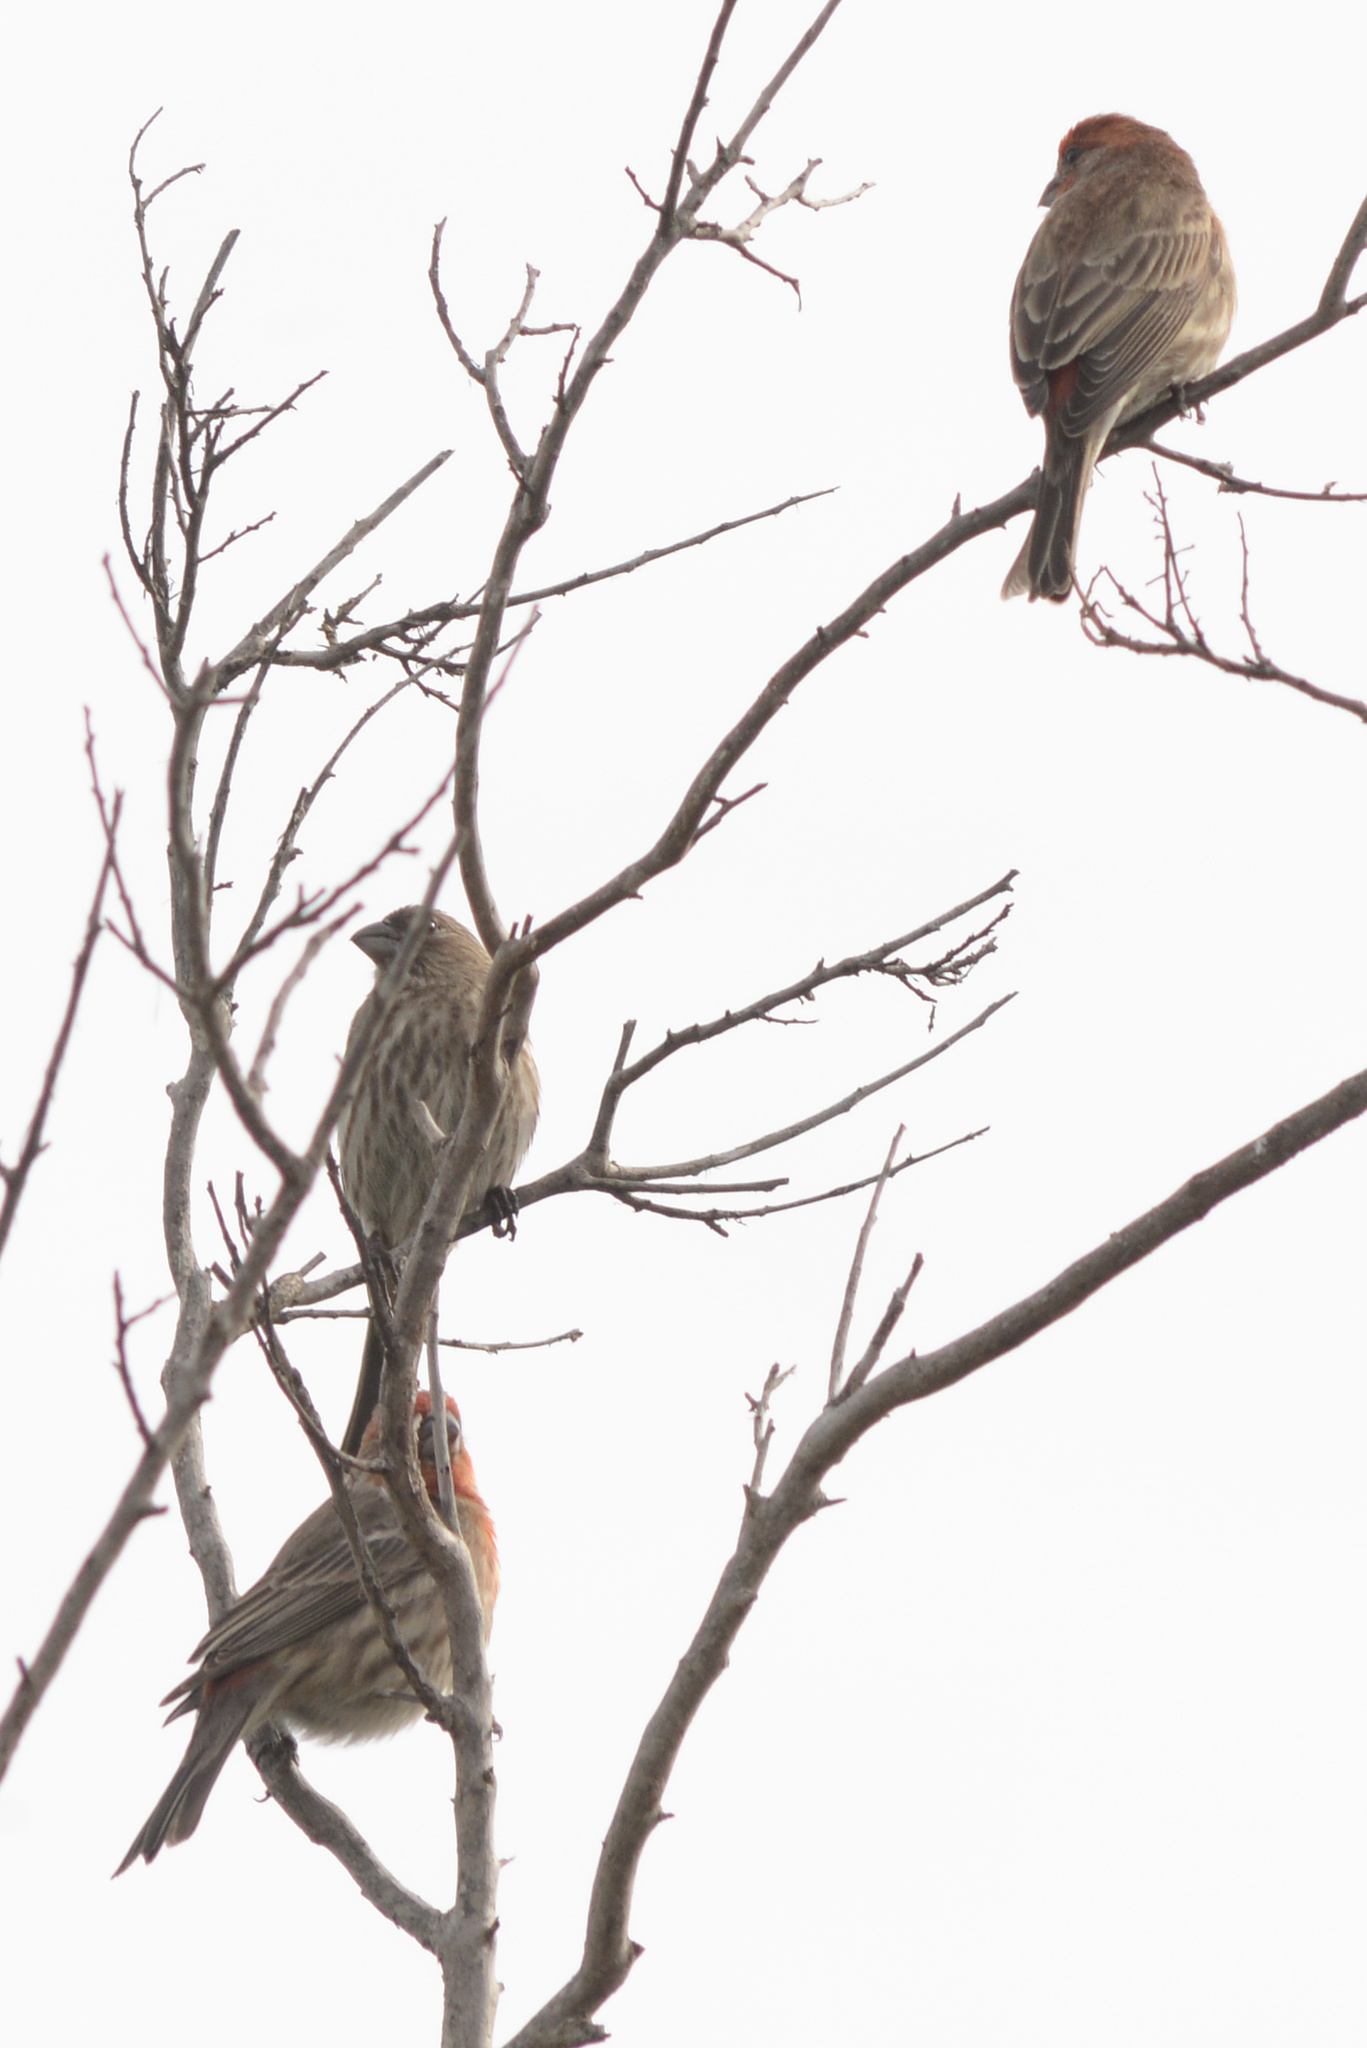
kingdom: Animalia
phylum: Chordata
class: Aves
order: Passeriformes
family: Fringillidae
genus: Haemorhous
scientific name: Haemorhous mexicanus
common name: House finch
